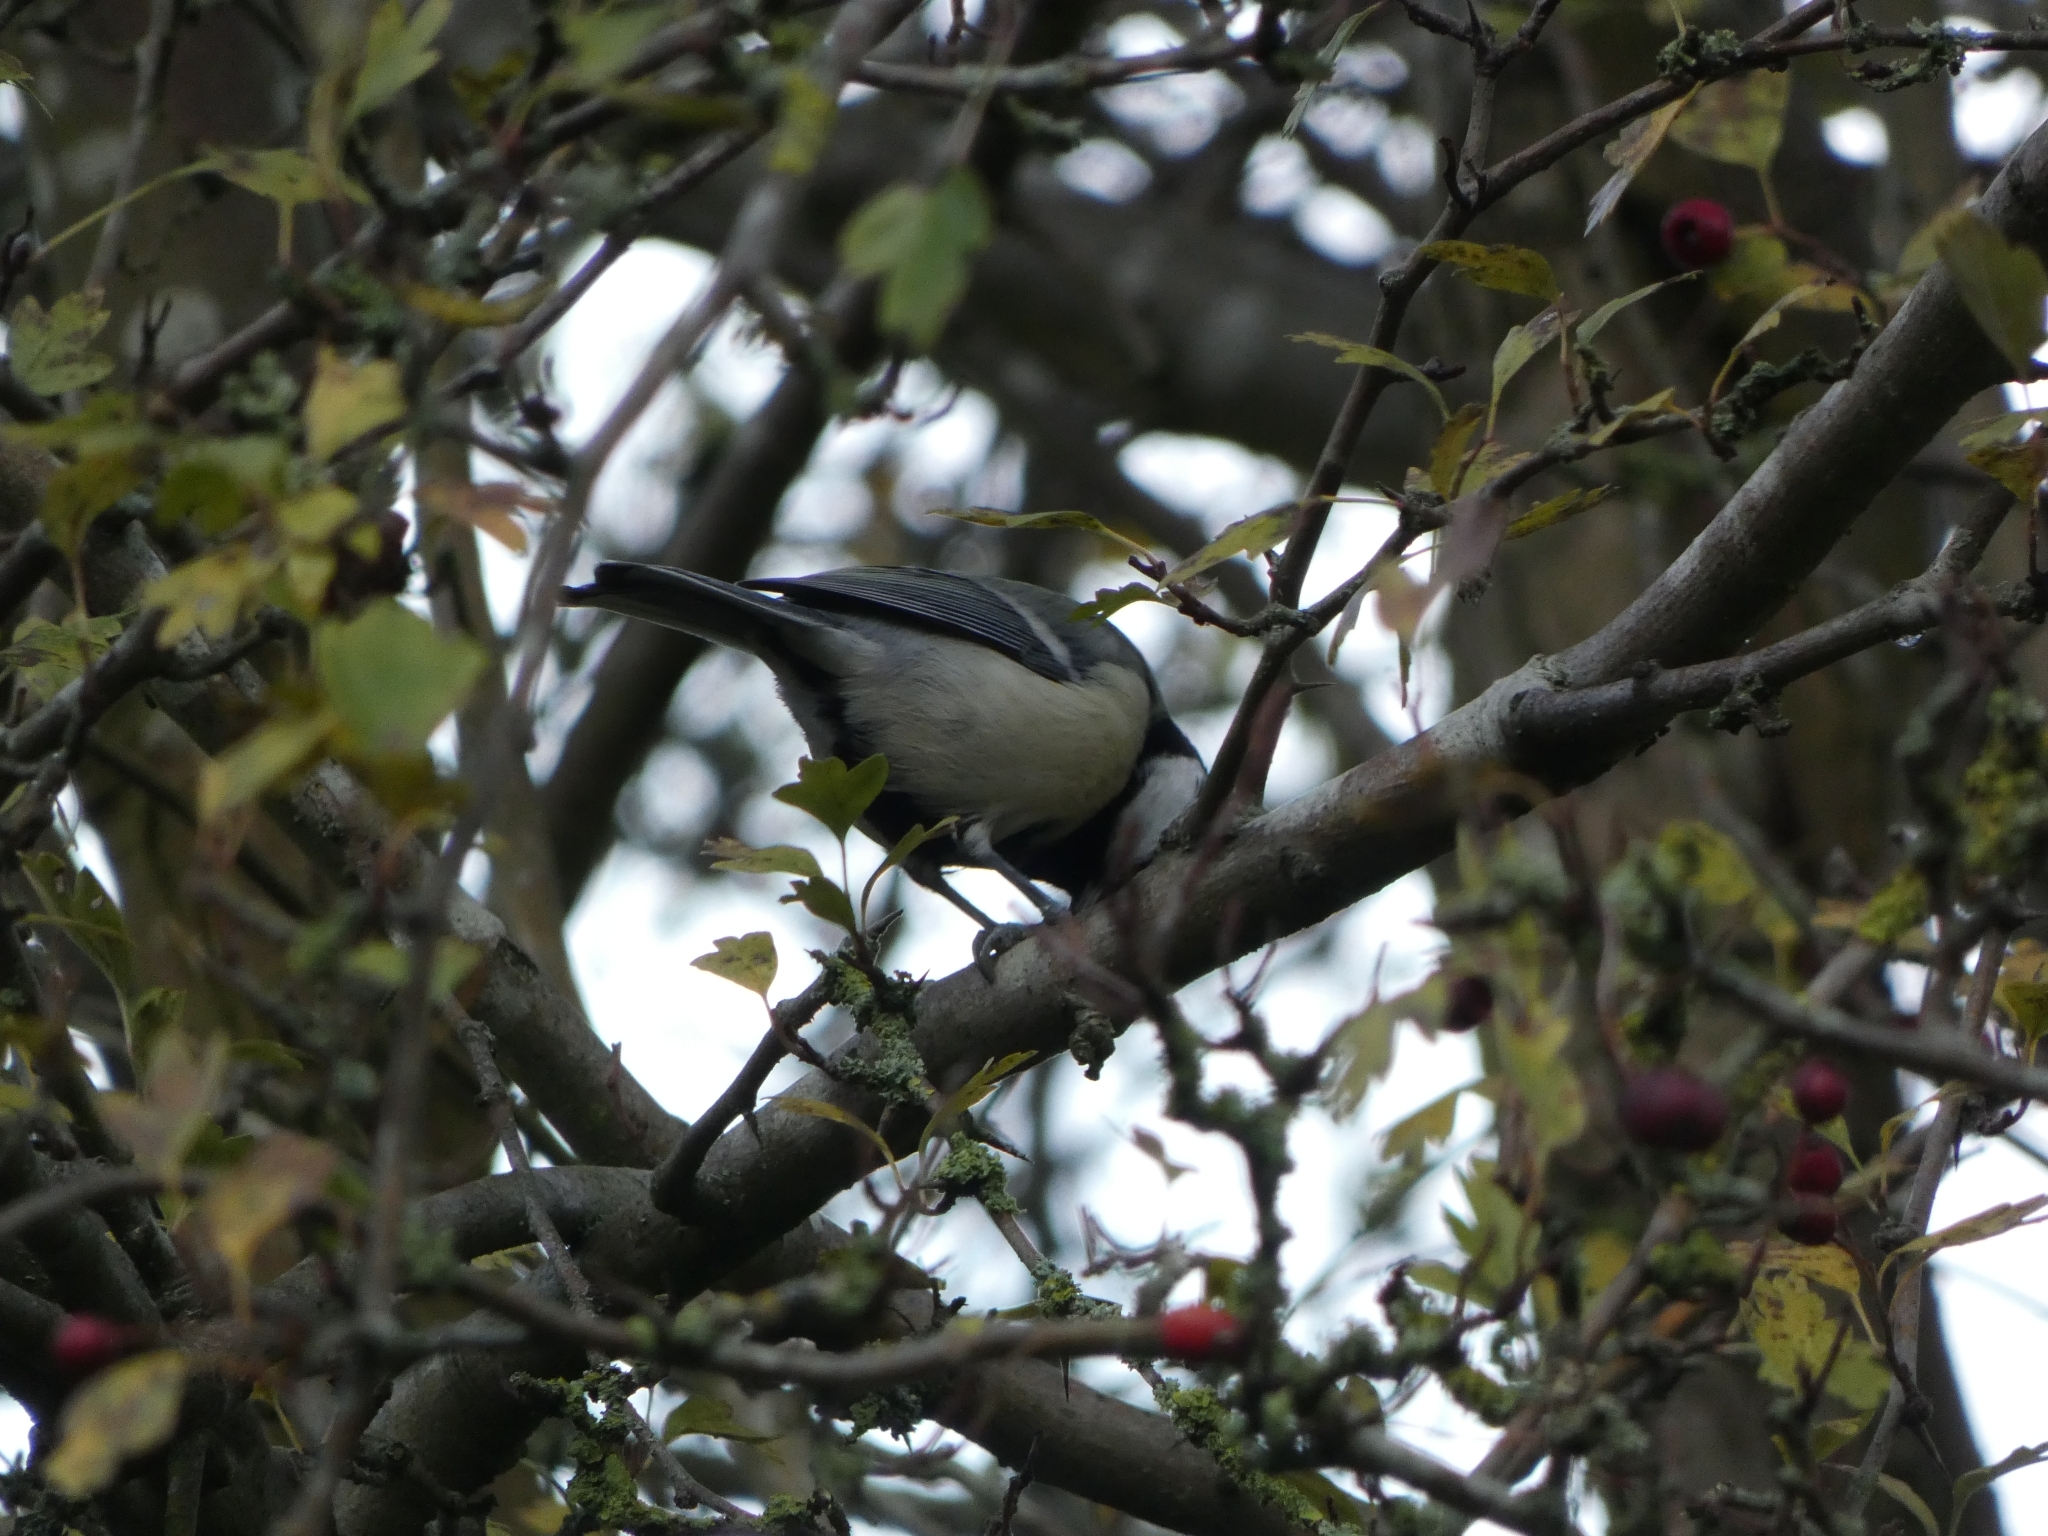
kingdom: Animalia
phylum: Chordata
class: Aves
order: Passeriformes
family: Paridae
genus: Parus
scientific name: Parus major
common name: Great tit
